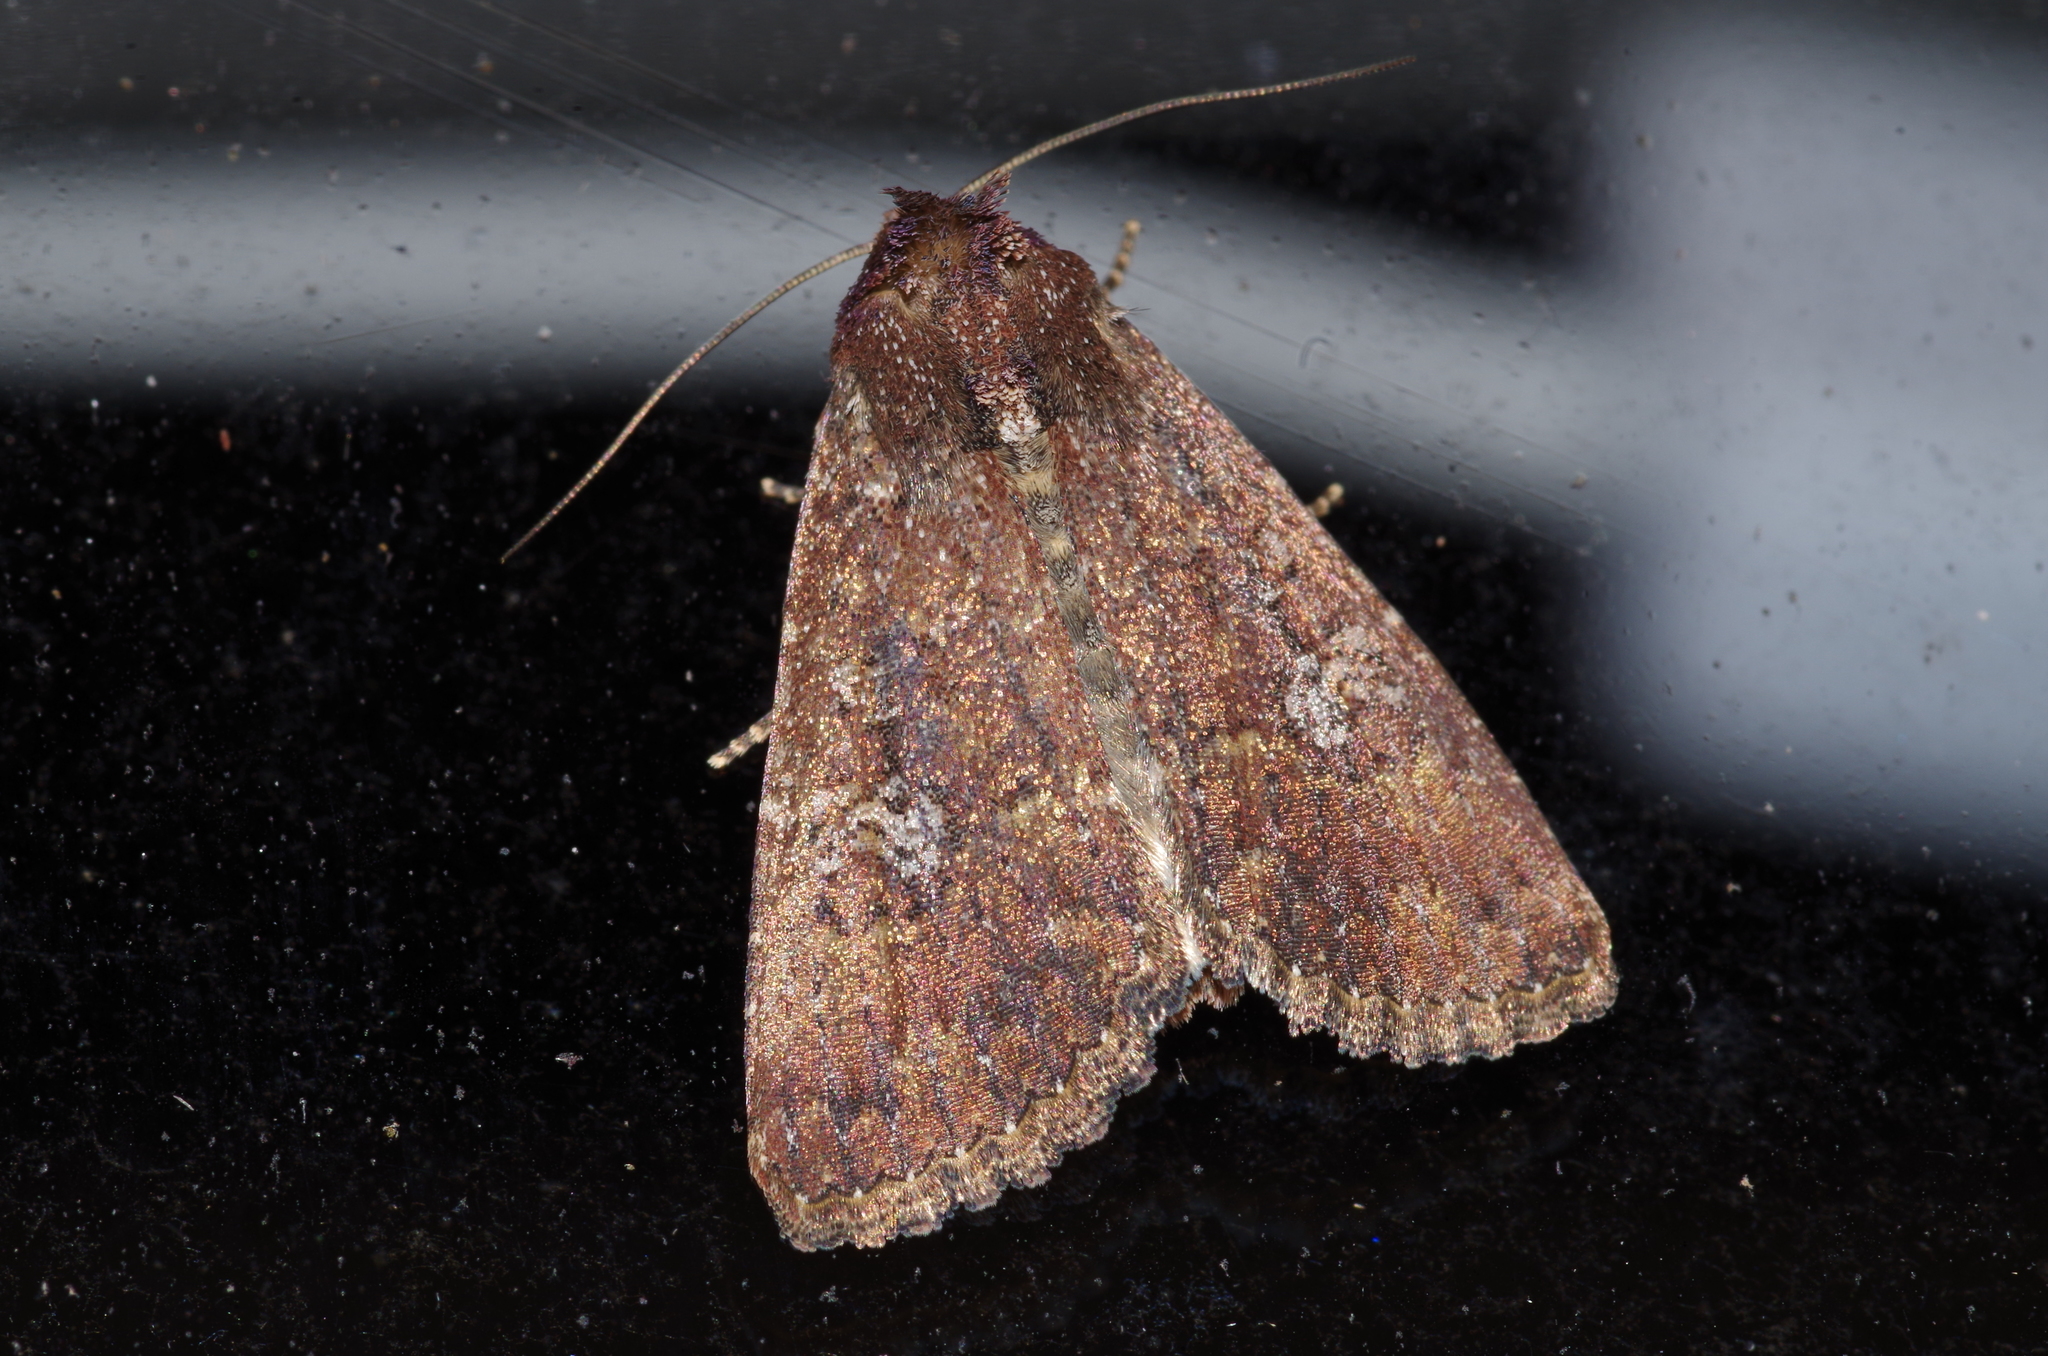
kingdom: Animalia
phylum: Arthropoda
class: Insecta
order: Lepidoptera
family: Noctuidae
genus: Condica
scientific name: Condica illecta
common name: Cutworm
